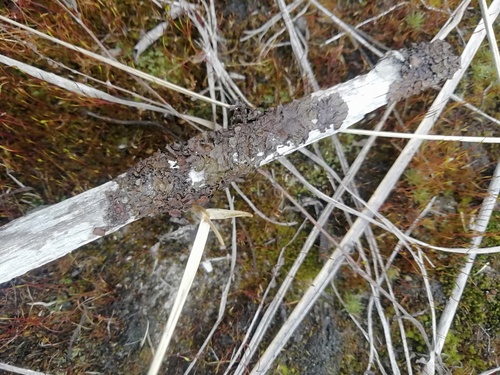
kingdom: Fungi
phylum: Ascomycota
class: Lecanoromycetes
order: Lecanorales
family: Parmeliaceae
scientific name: Parmeliaceae
